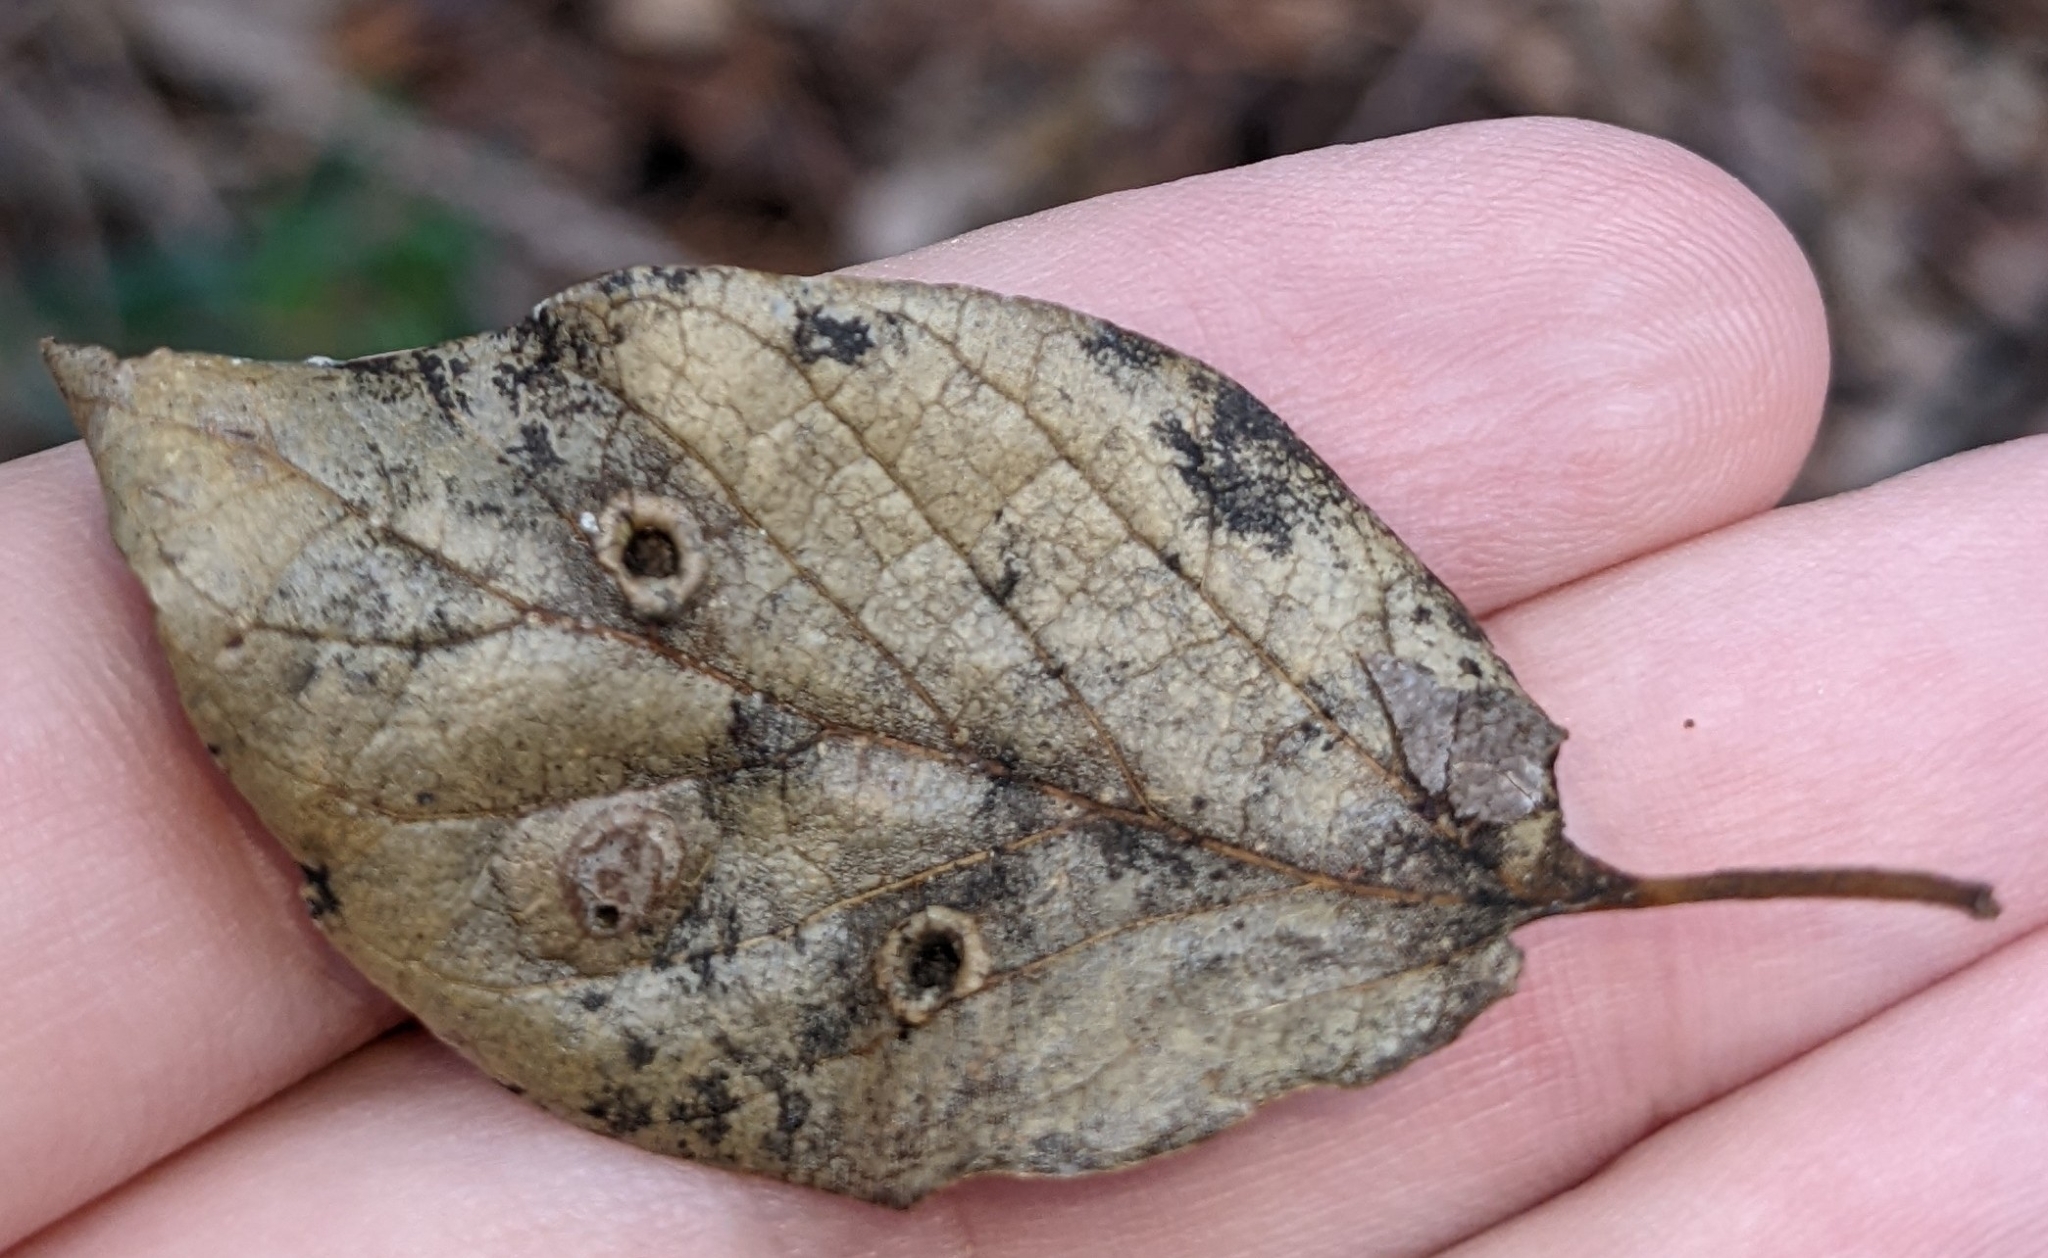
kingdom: Animalia
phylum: Arthropoda
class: Insecta
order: Hemiptera
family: Aphalaridae
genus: Pachypsylla
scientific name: Pachypsylla celtidismamma
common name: Hackberry nipplegall psyllid
